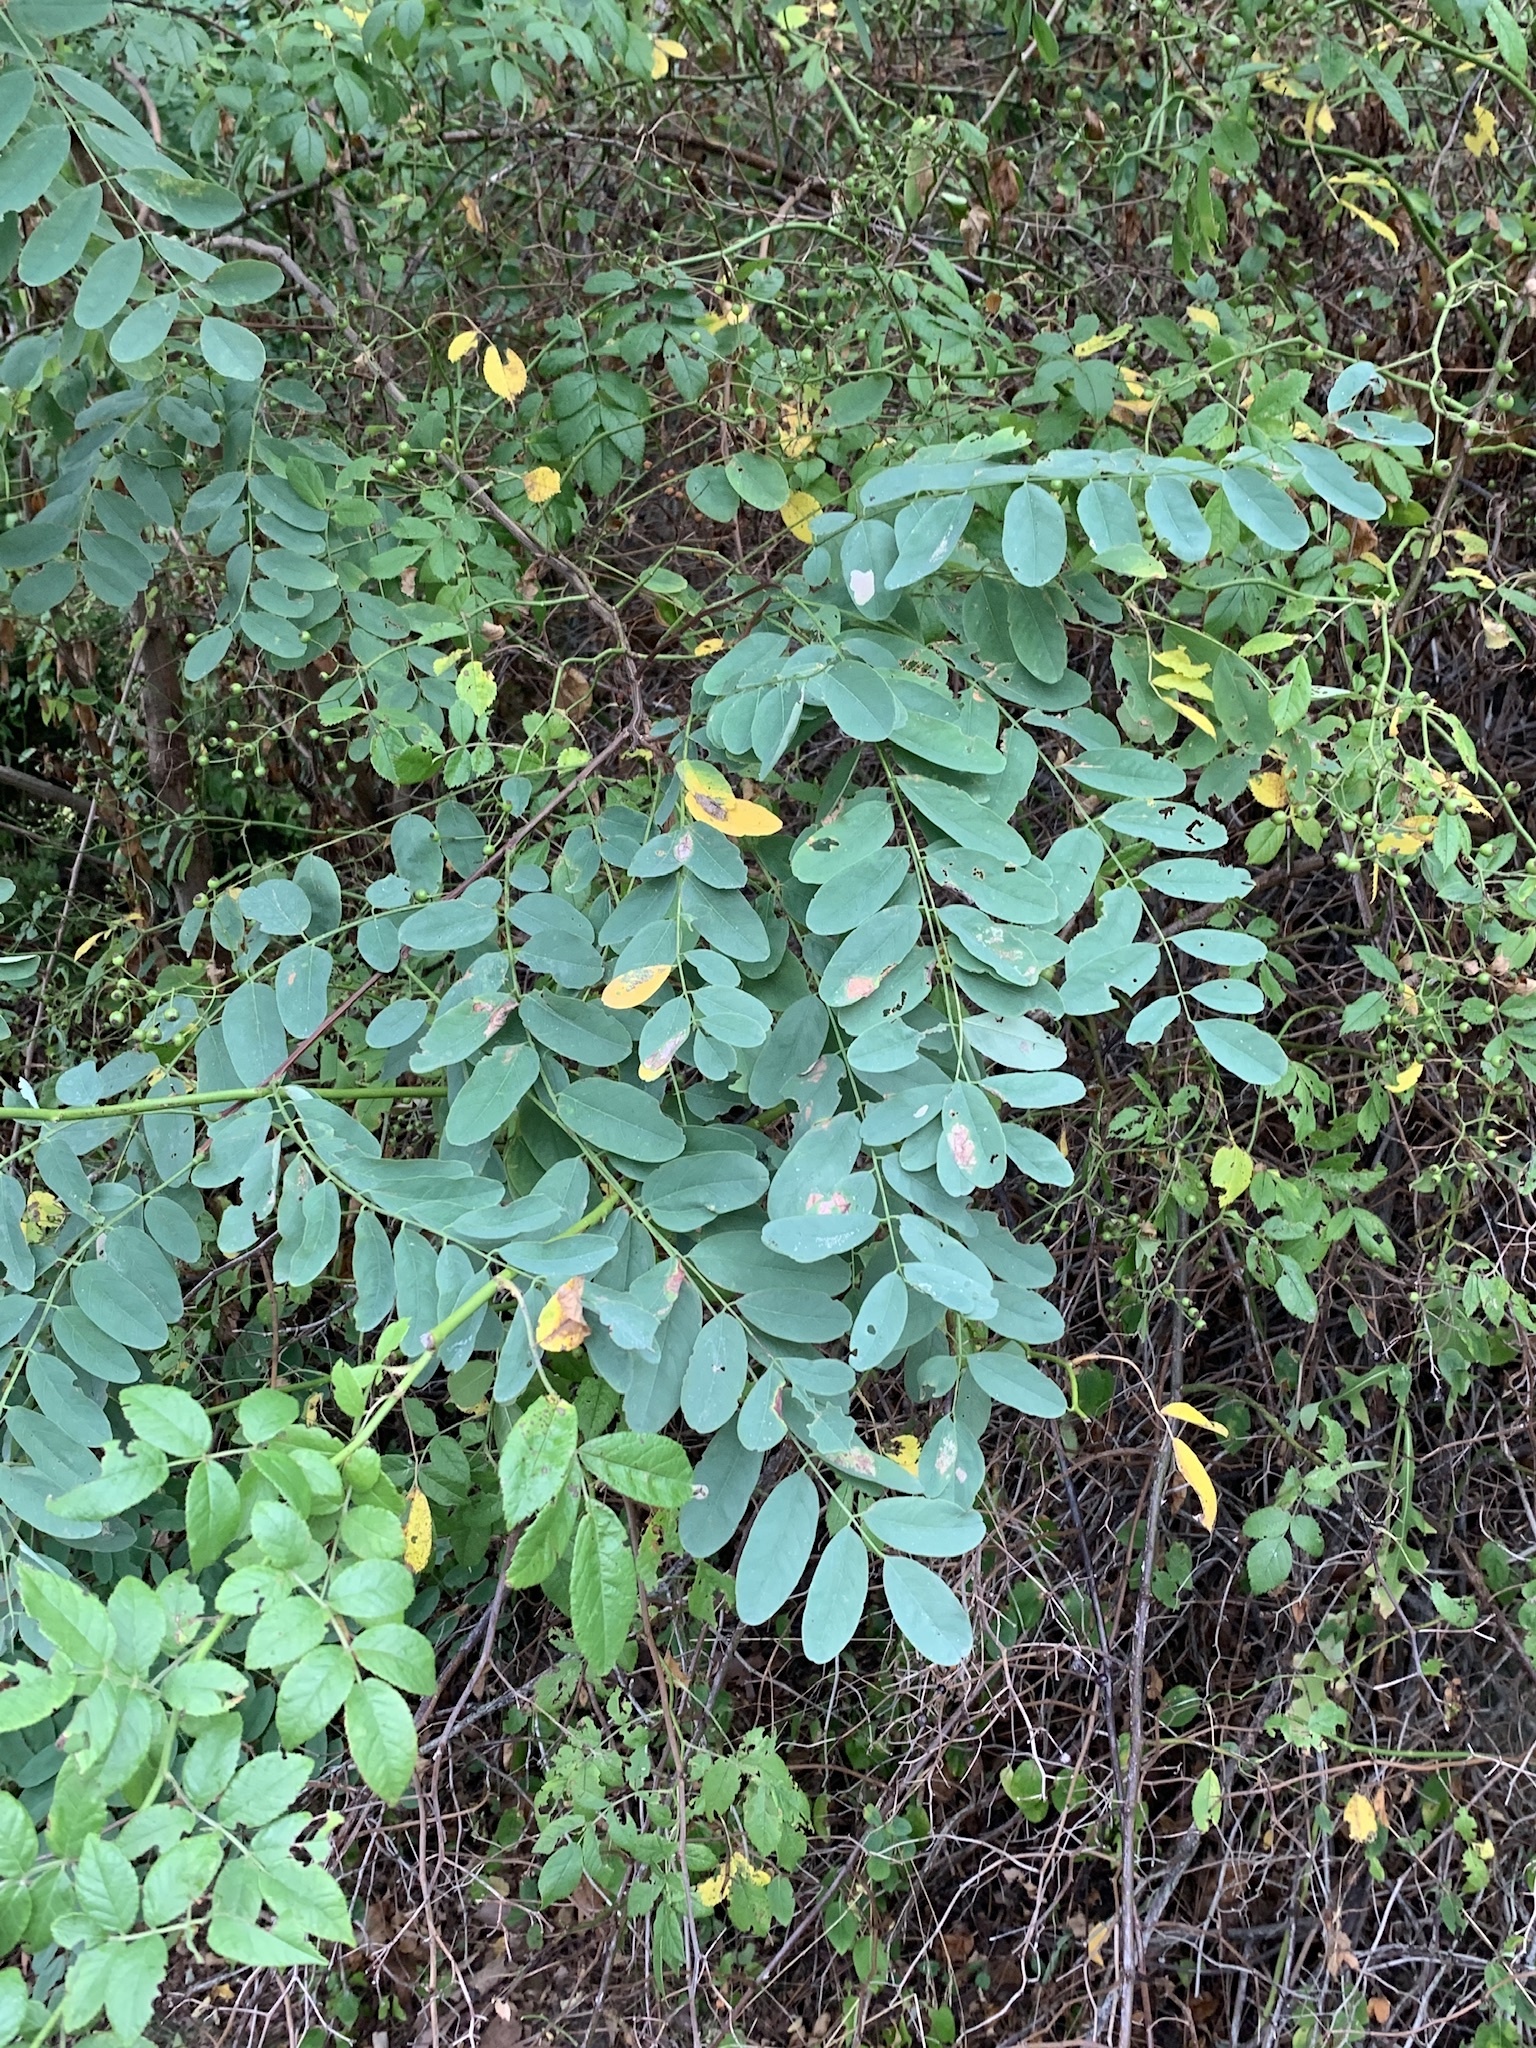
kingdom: Plantae
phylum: Tracheophyta
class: Magnoliopsida
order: Fabales
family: Fabaceae
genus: Robinia
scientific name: Robinia pseudoacacia
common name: Black locust
